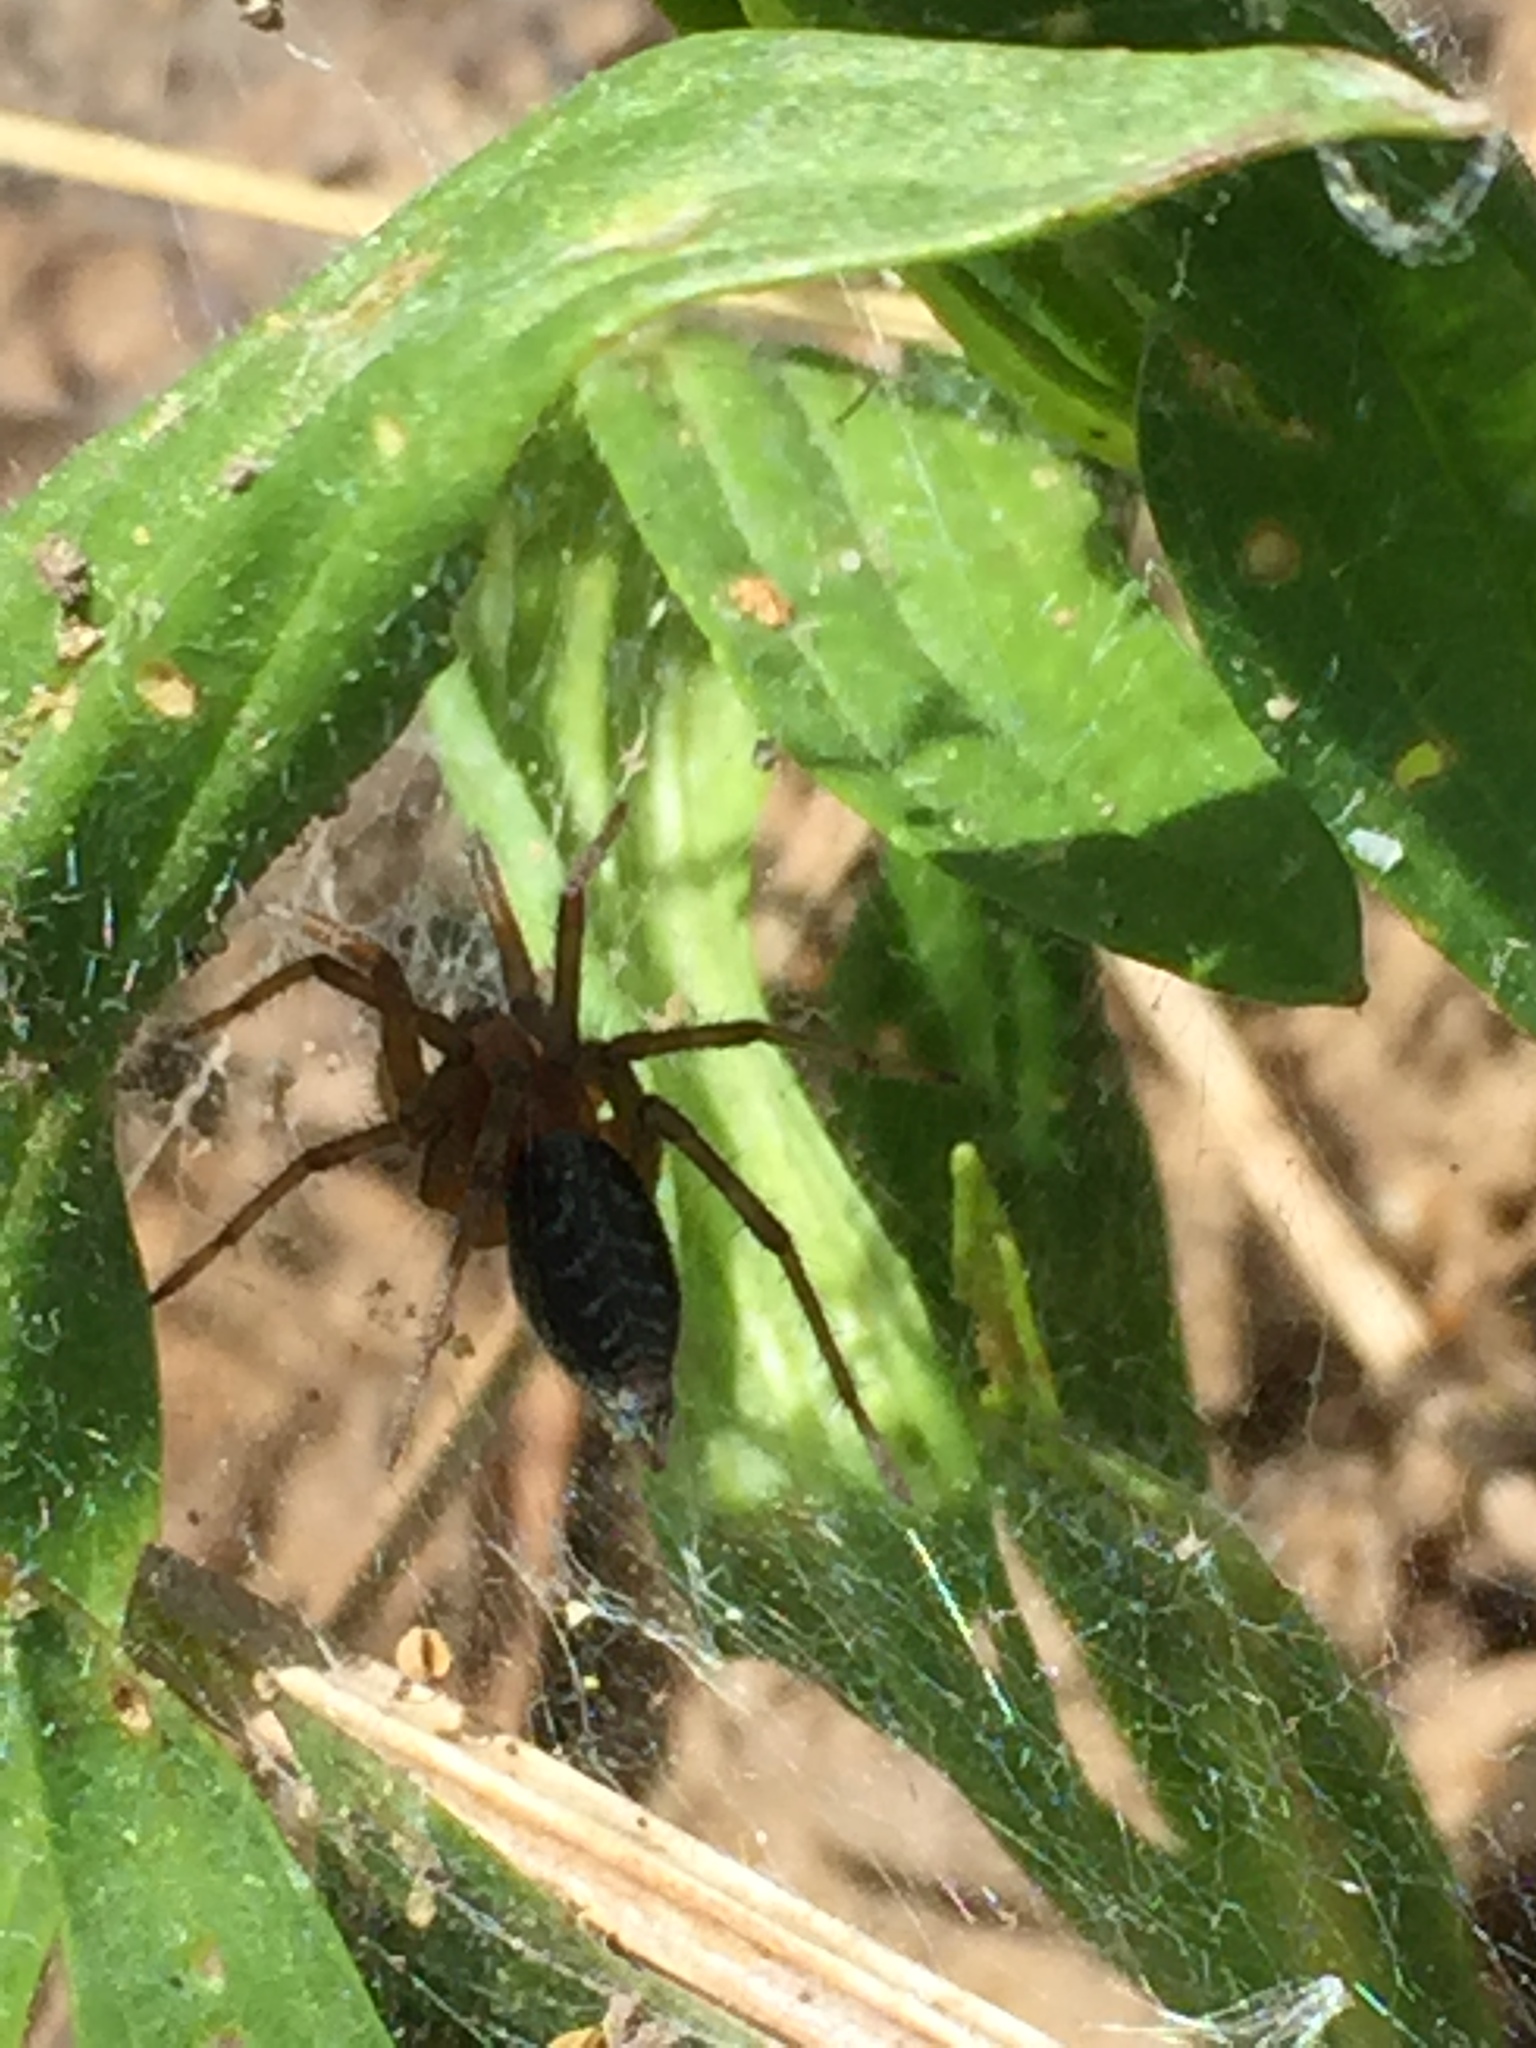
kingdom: Animalia
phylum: Arthropoda
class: Arachnida
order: Araneae
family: Agelenidae
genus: Agelena
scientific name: Agelena labyrinthica
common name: Labyrinth spider
